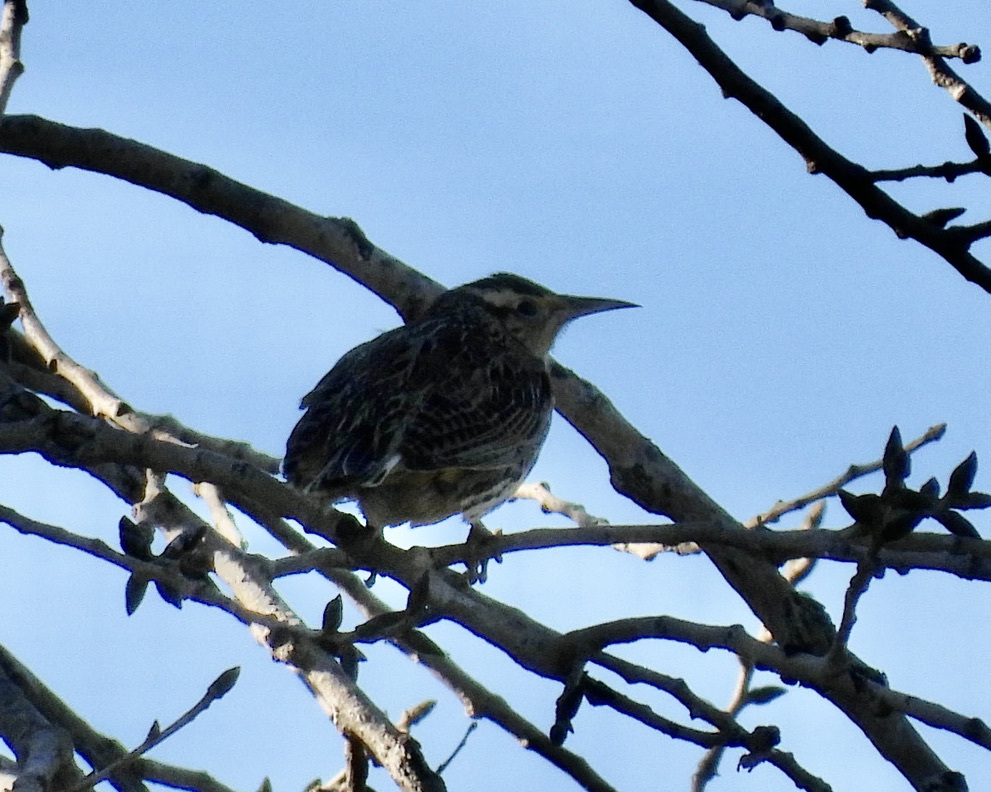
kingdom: Animalia
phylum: Chordata
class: Aves
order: Passeriformes
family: Icteridae
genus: Sturnella
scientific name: Sturnella neglecta
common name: Western meadowlark
